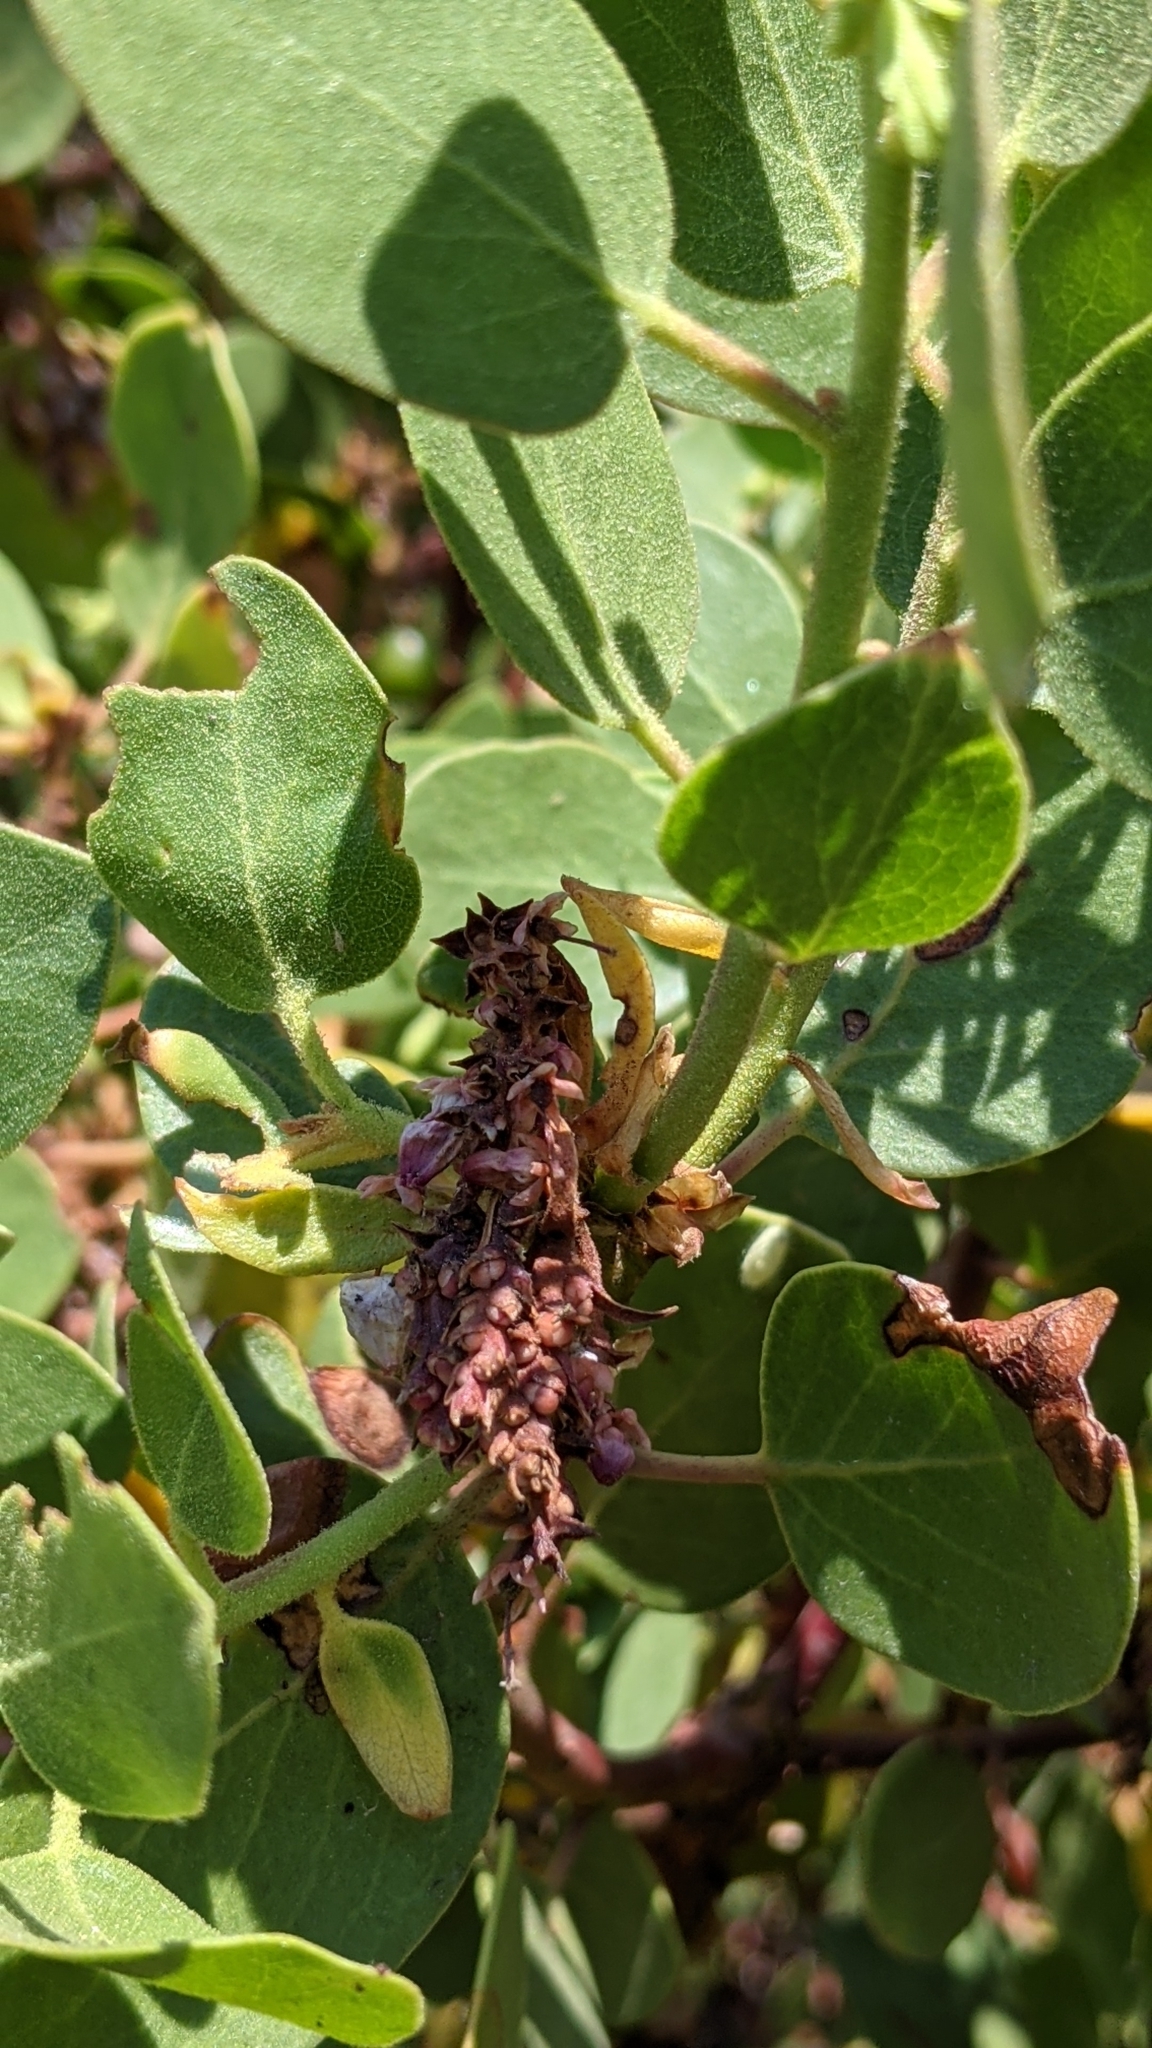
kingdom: Plantae
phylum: Tracheophyta
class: Magnoliopsida
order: Ericales
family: Ericaceae
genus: Arctostaphylos
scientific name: Arctostaphylos patula
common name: Green-leaf manzanita
